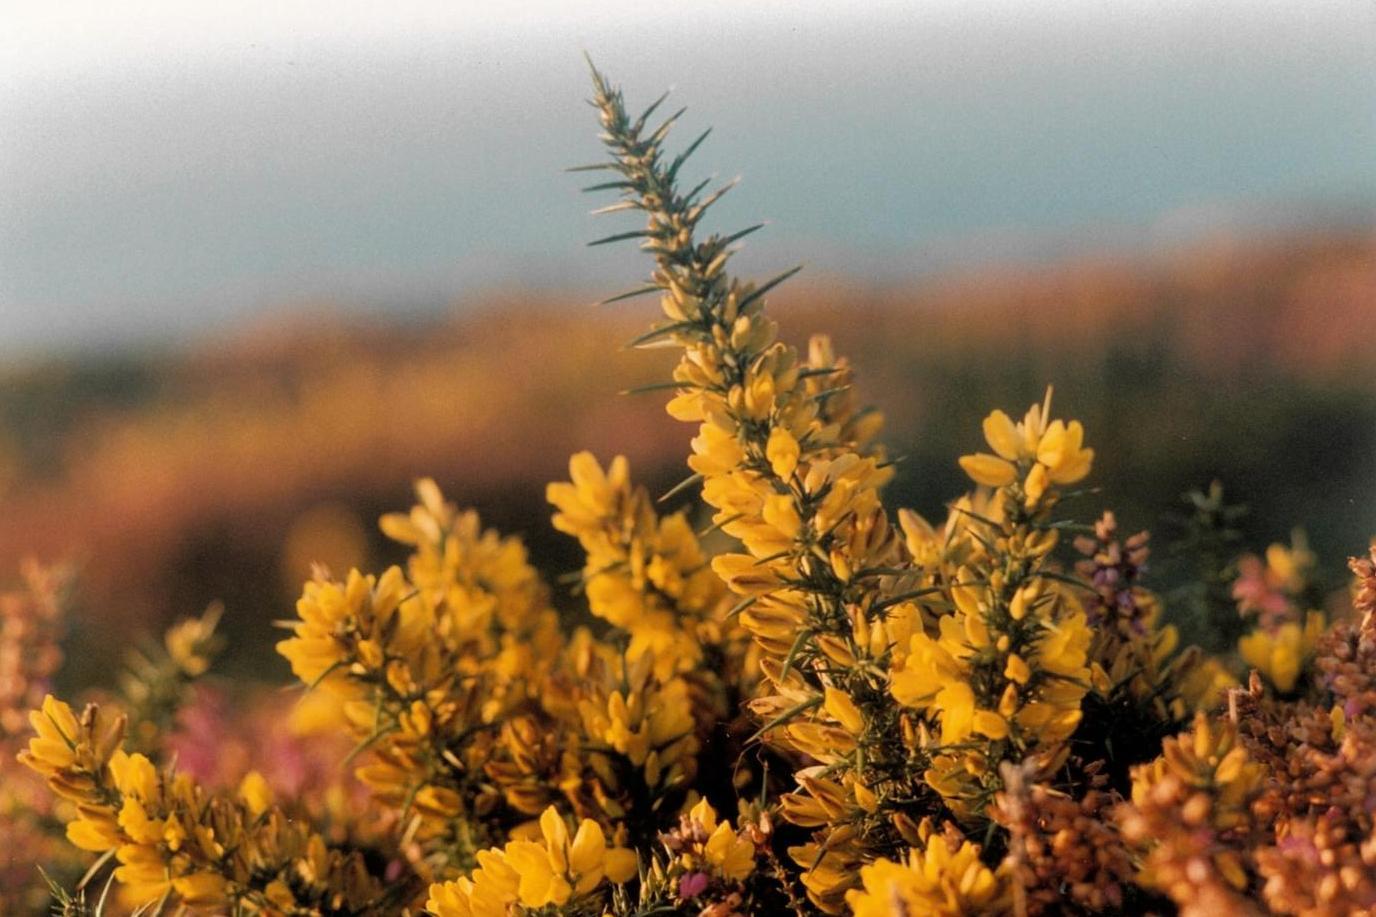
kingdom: Plantae
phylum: Tracheophyta
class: Magnoliopsida
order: Fabales
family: Fabaceae
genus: Ulex
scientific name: Ulex europaeus
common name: Common gorse
